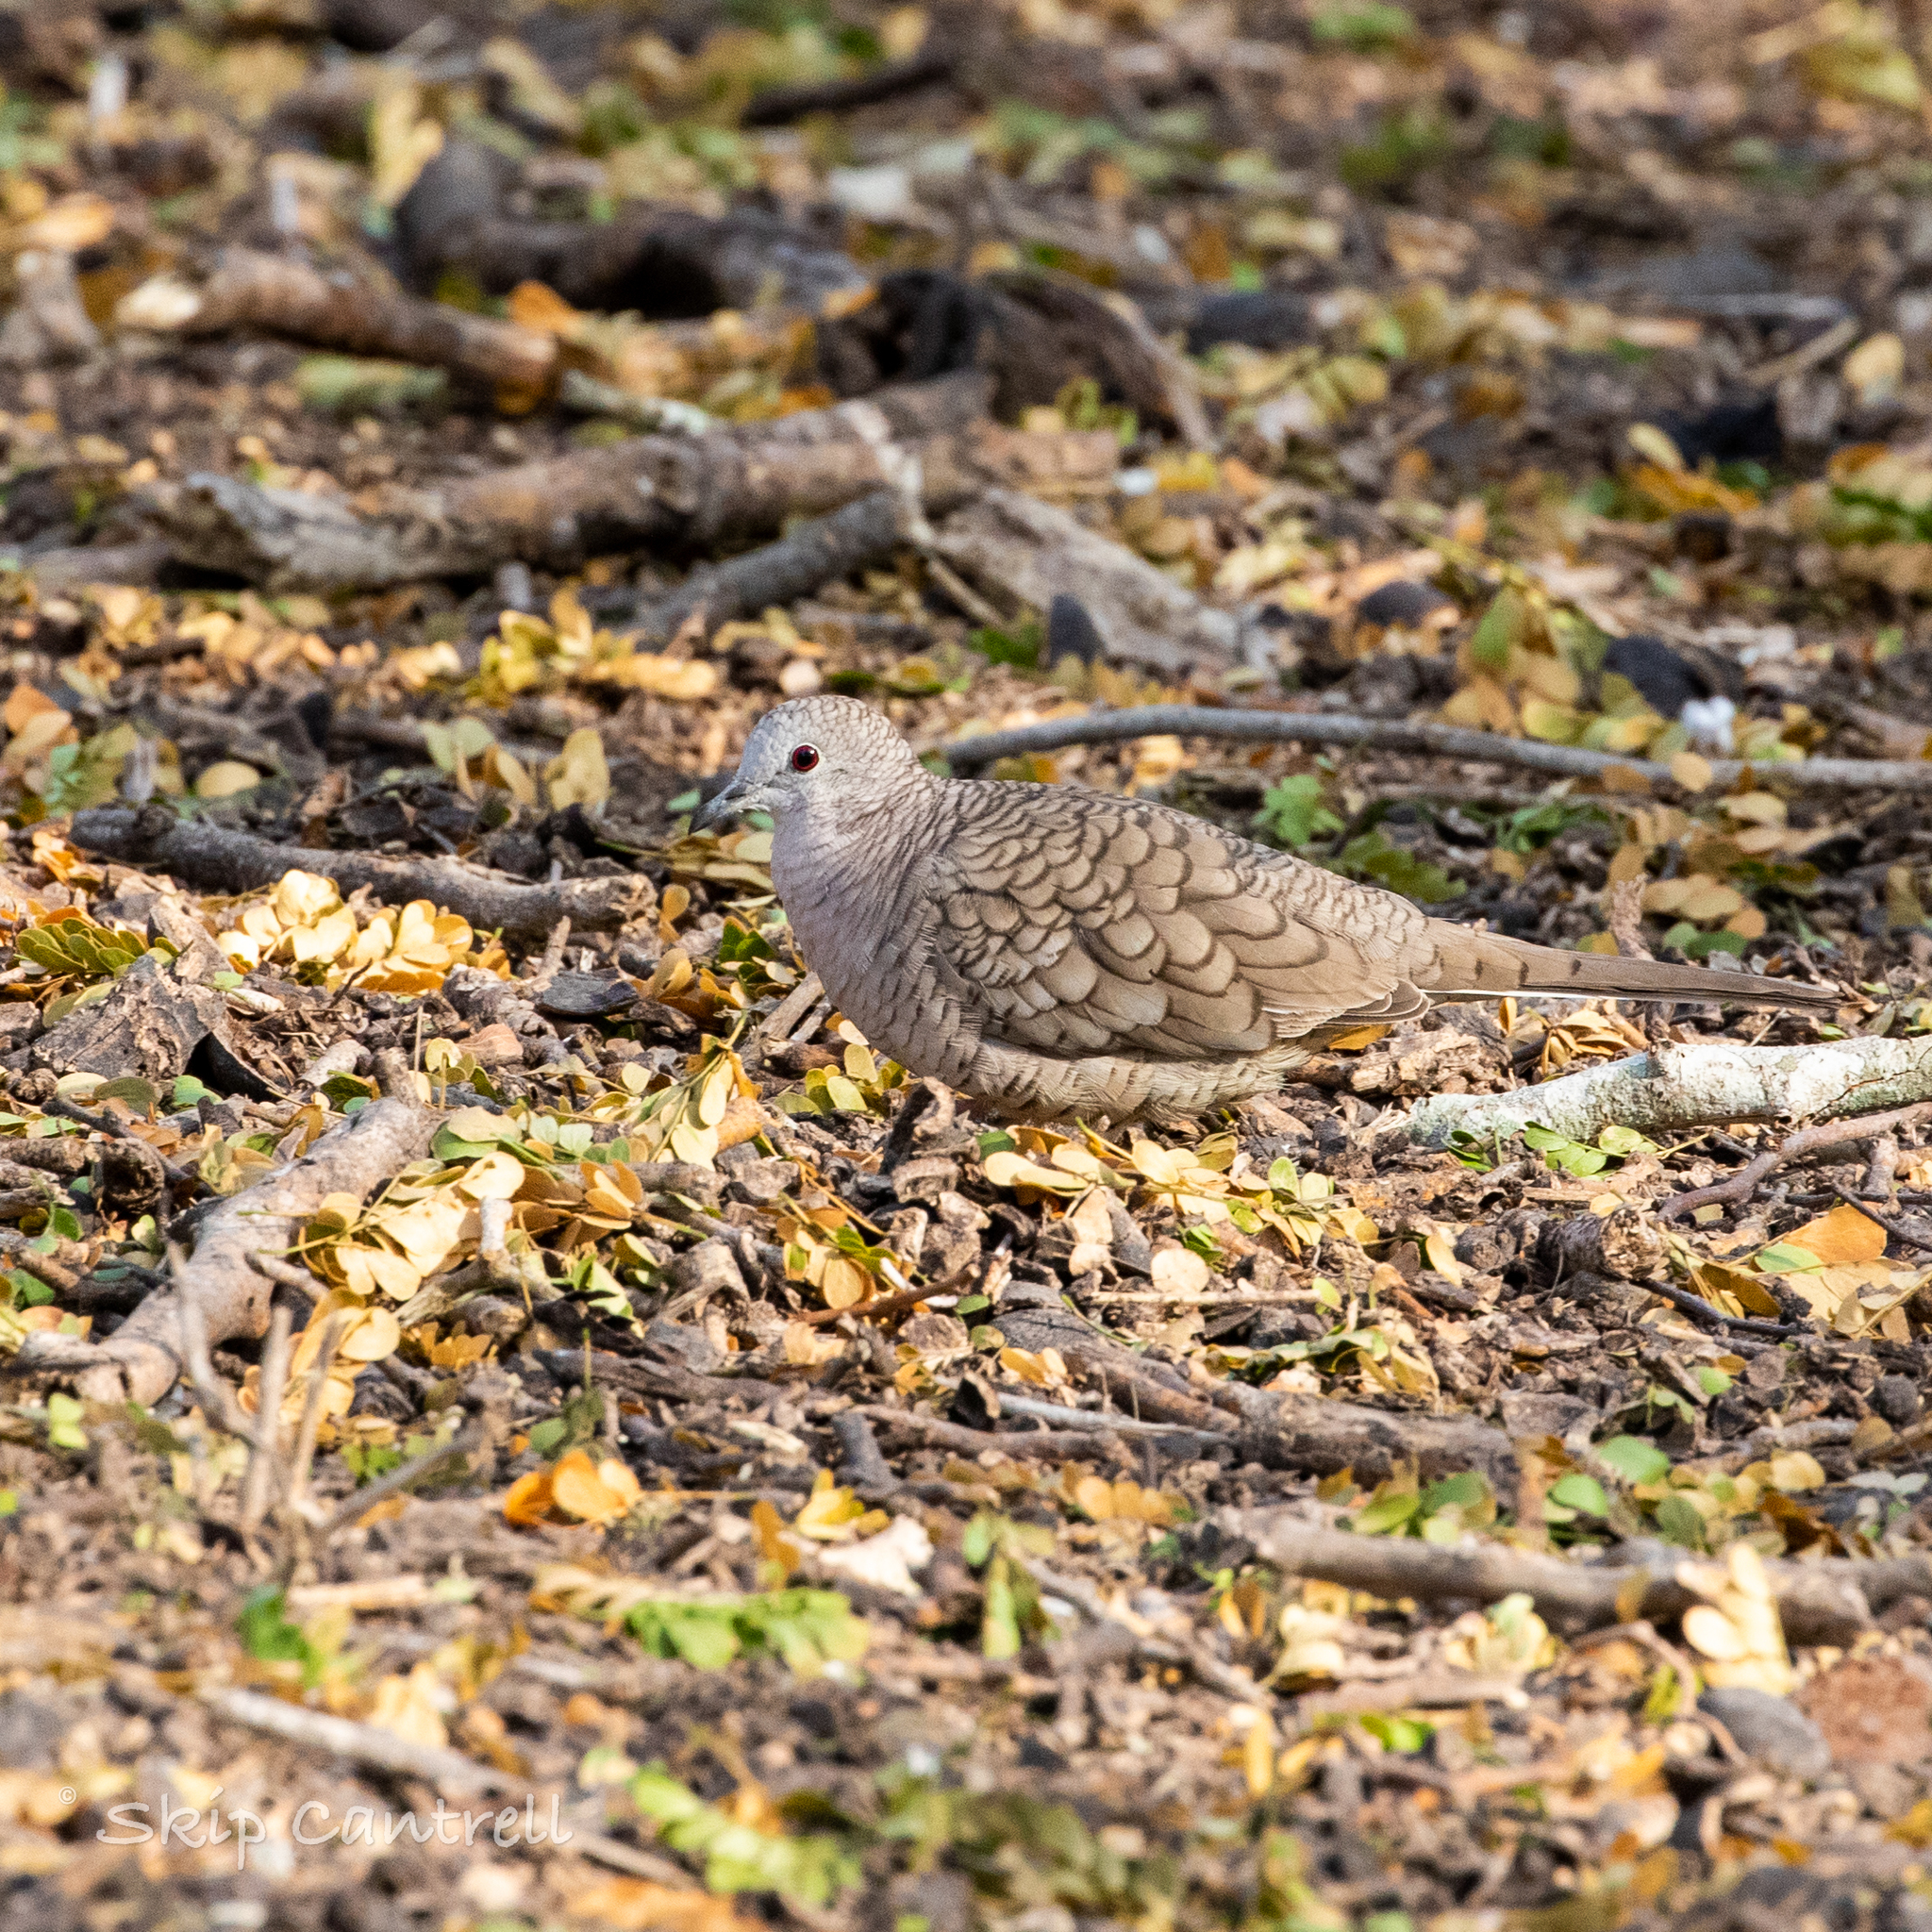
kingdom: Animalia
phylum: Chordata
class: Aves
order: Columbiformes
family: Columbidae
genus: Columbina
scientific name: Columbina inca
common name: Inca dove
